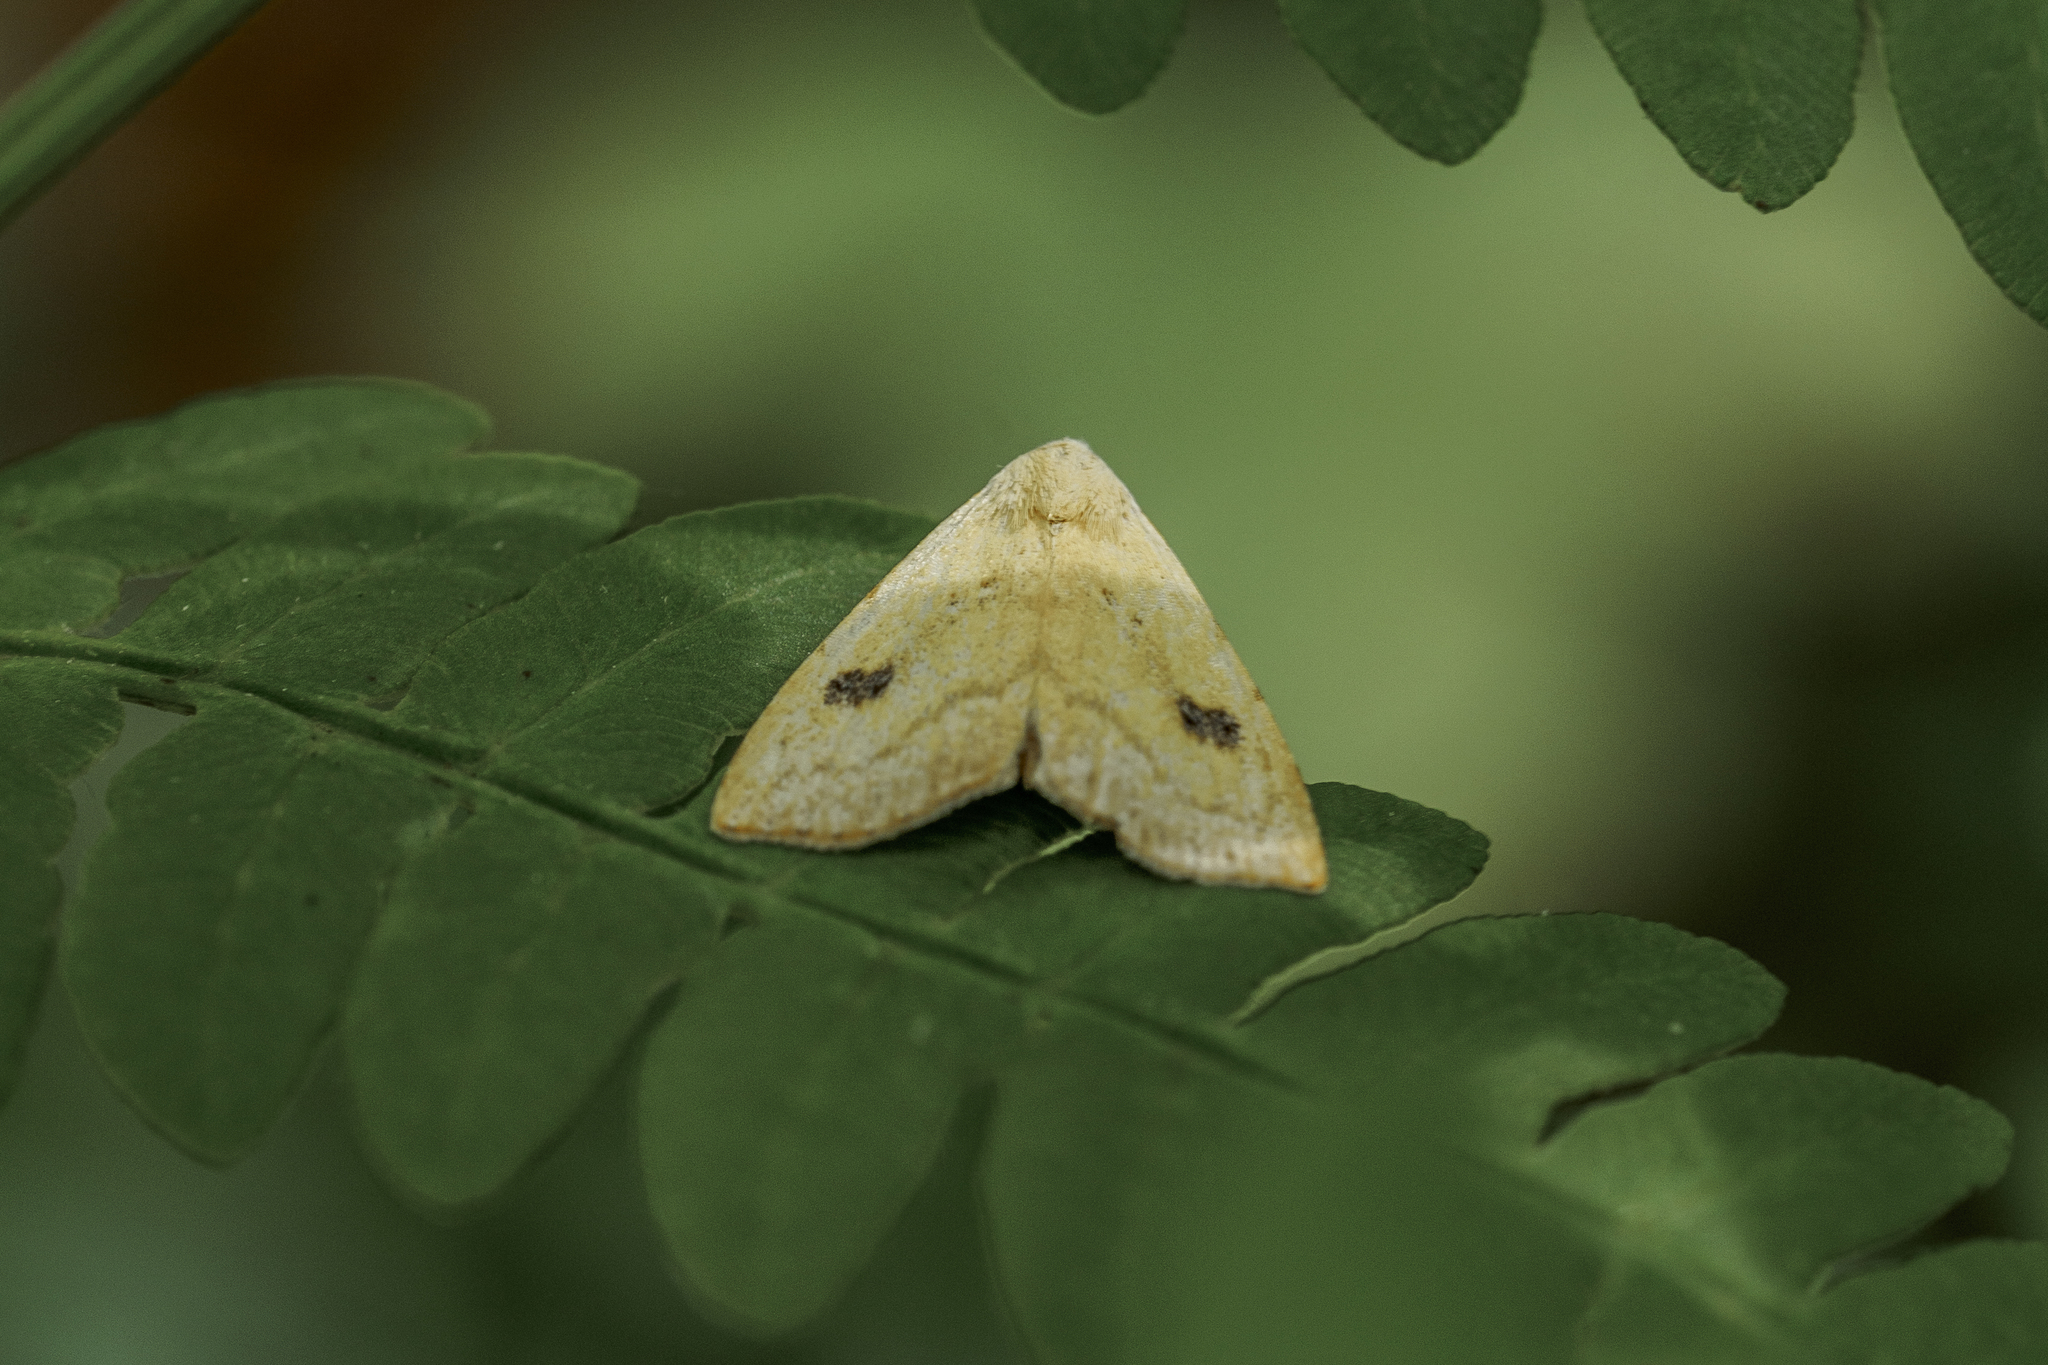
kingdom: Animalia
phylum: Arthropoda
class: Insecta
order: Lepidoptera
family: Erebidae
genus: Rivula
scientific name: Rivula sericealis
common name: Straw dot
